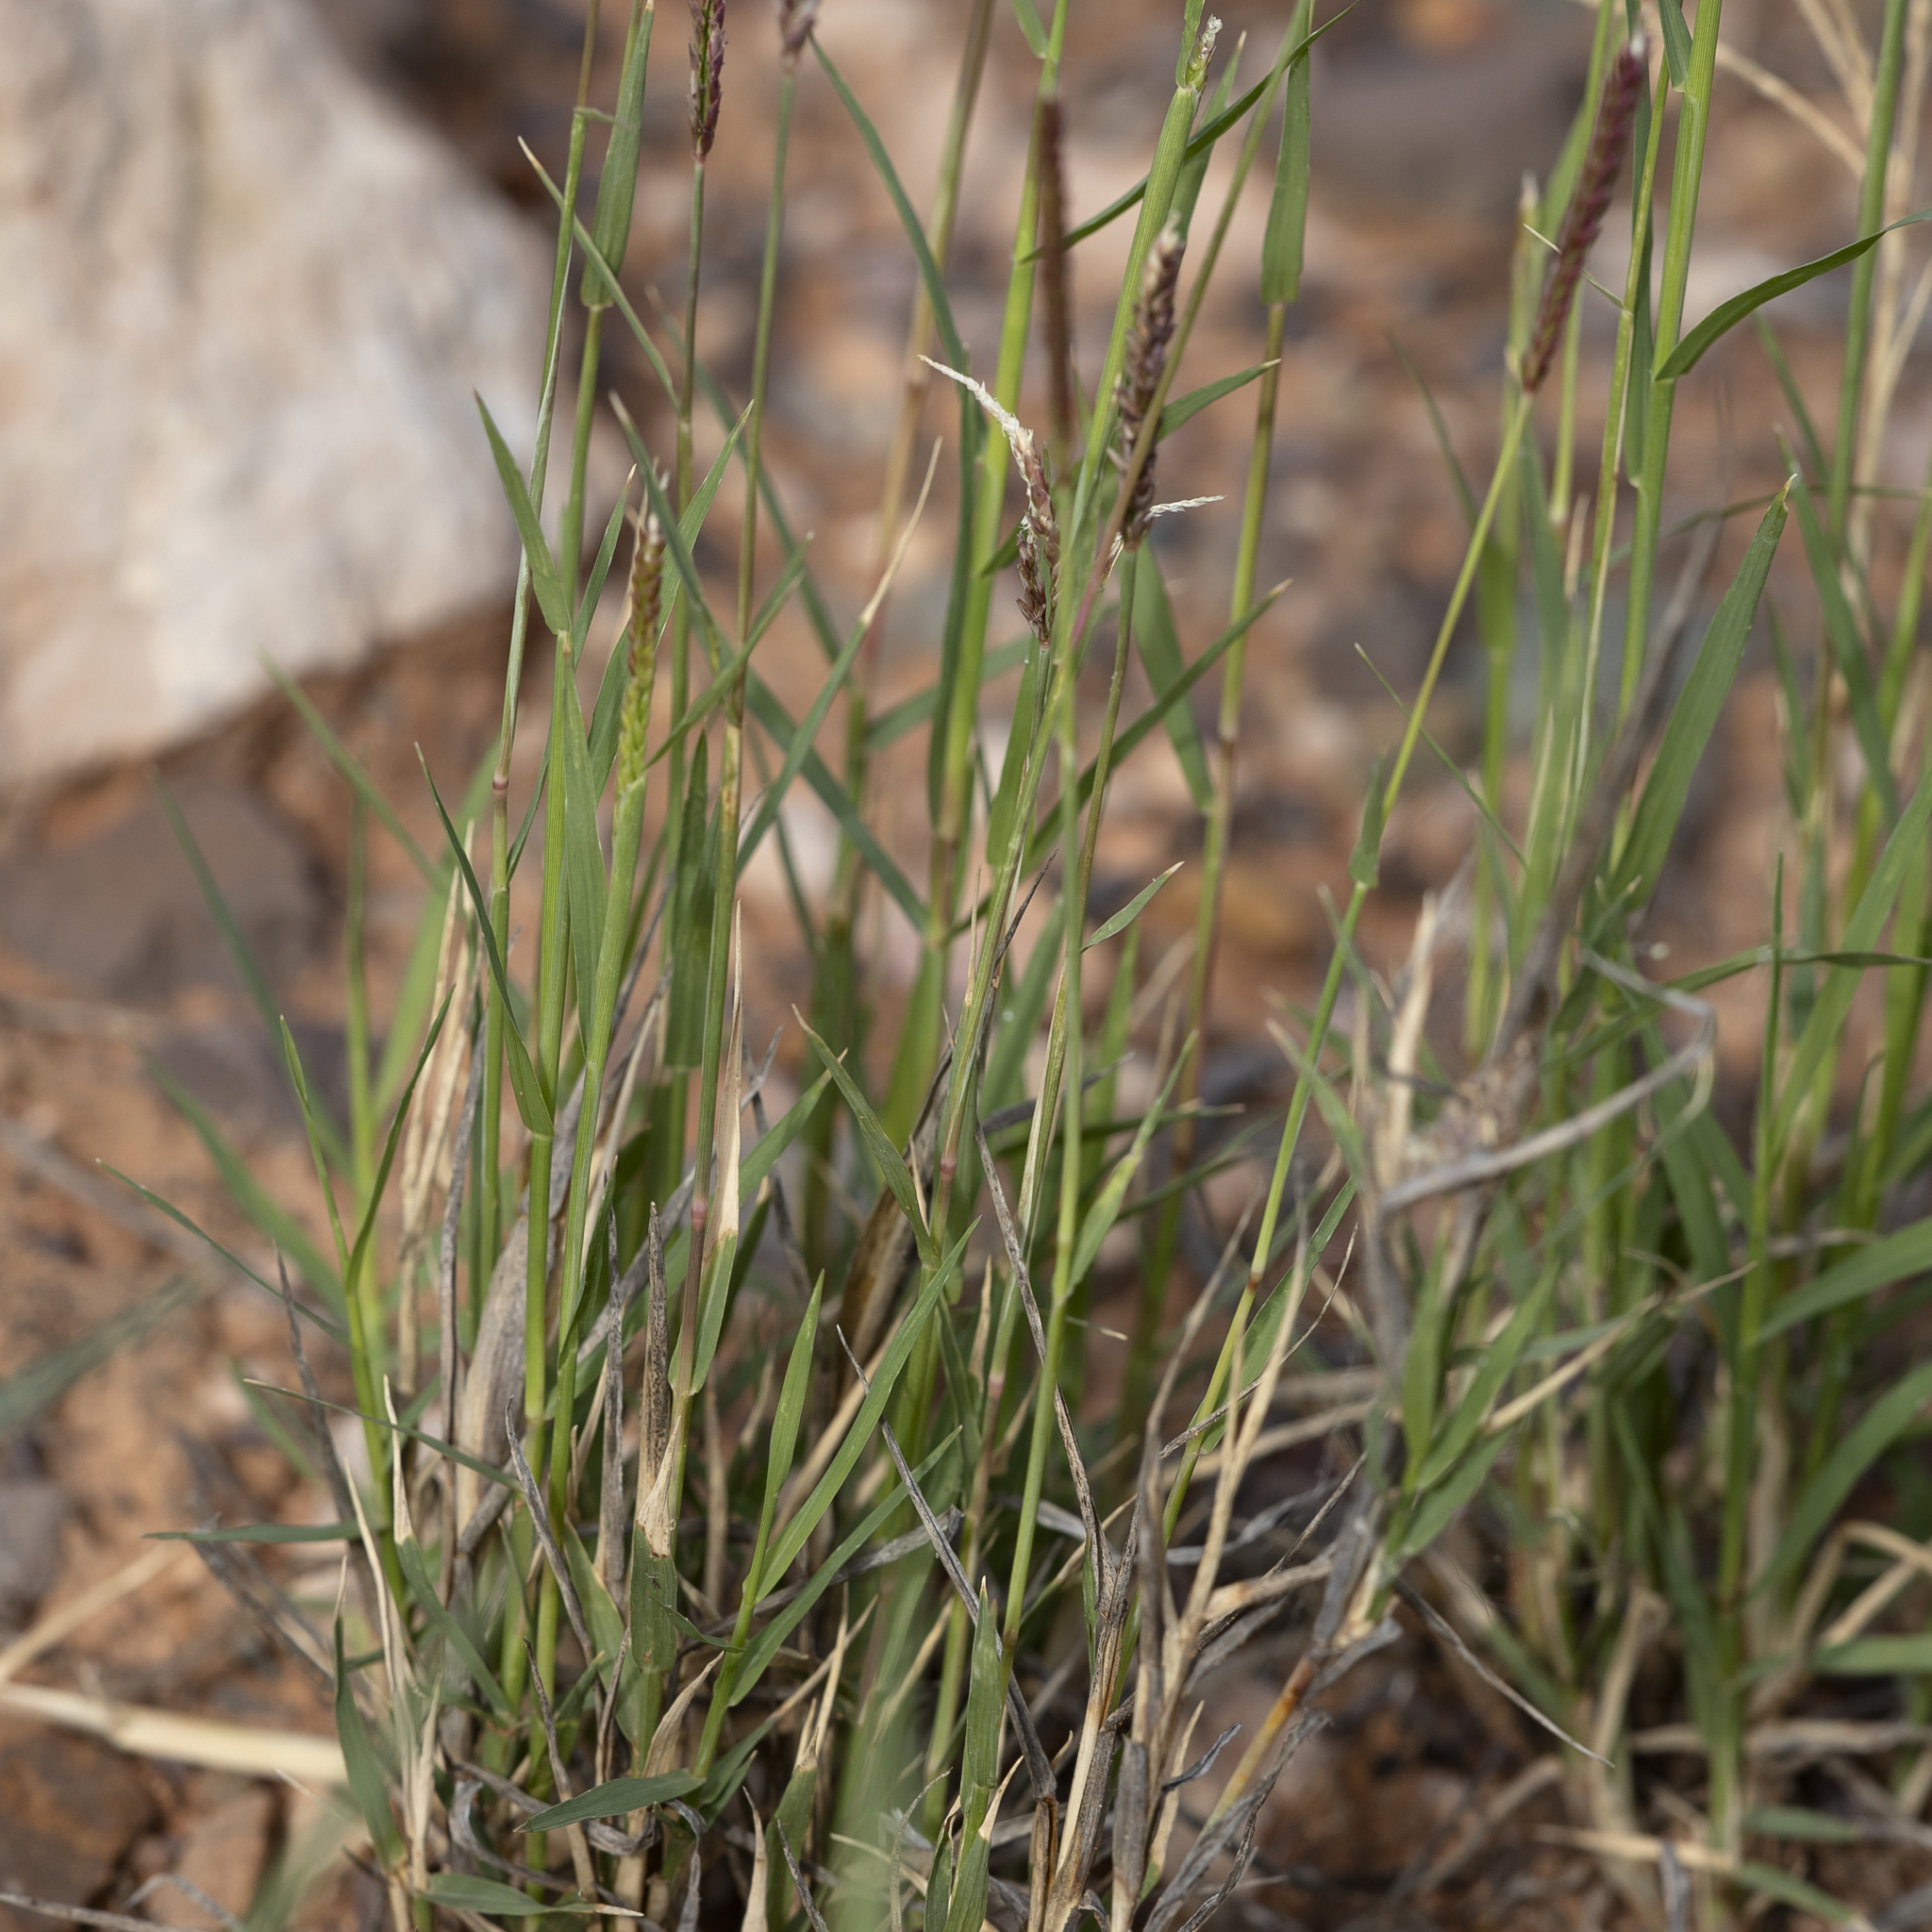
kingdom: Plantae
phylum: Tracheophyta
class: Liliopsida
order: Poales
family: Poaceae
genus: Cynodon
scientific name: Cynodon dactylon
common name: Bermuda grass
